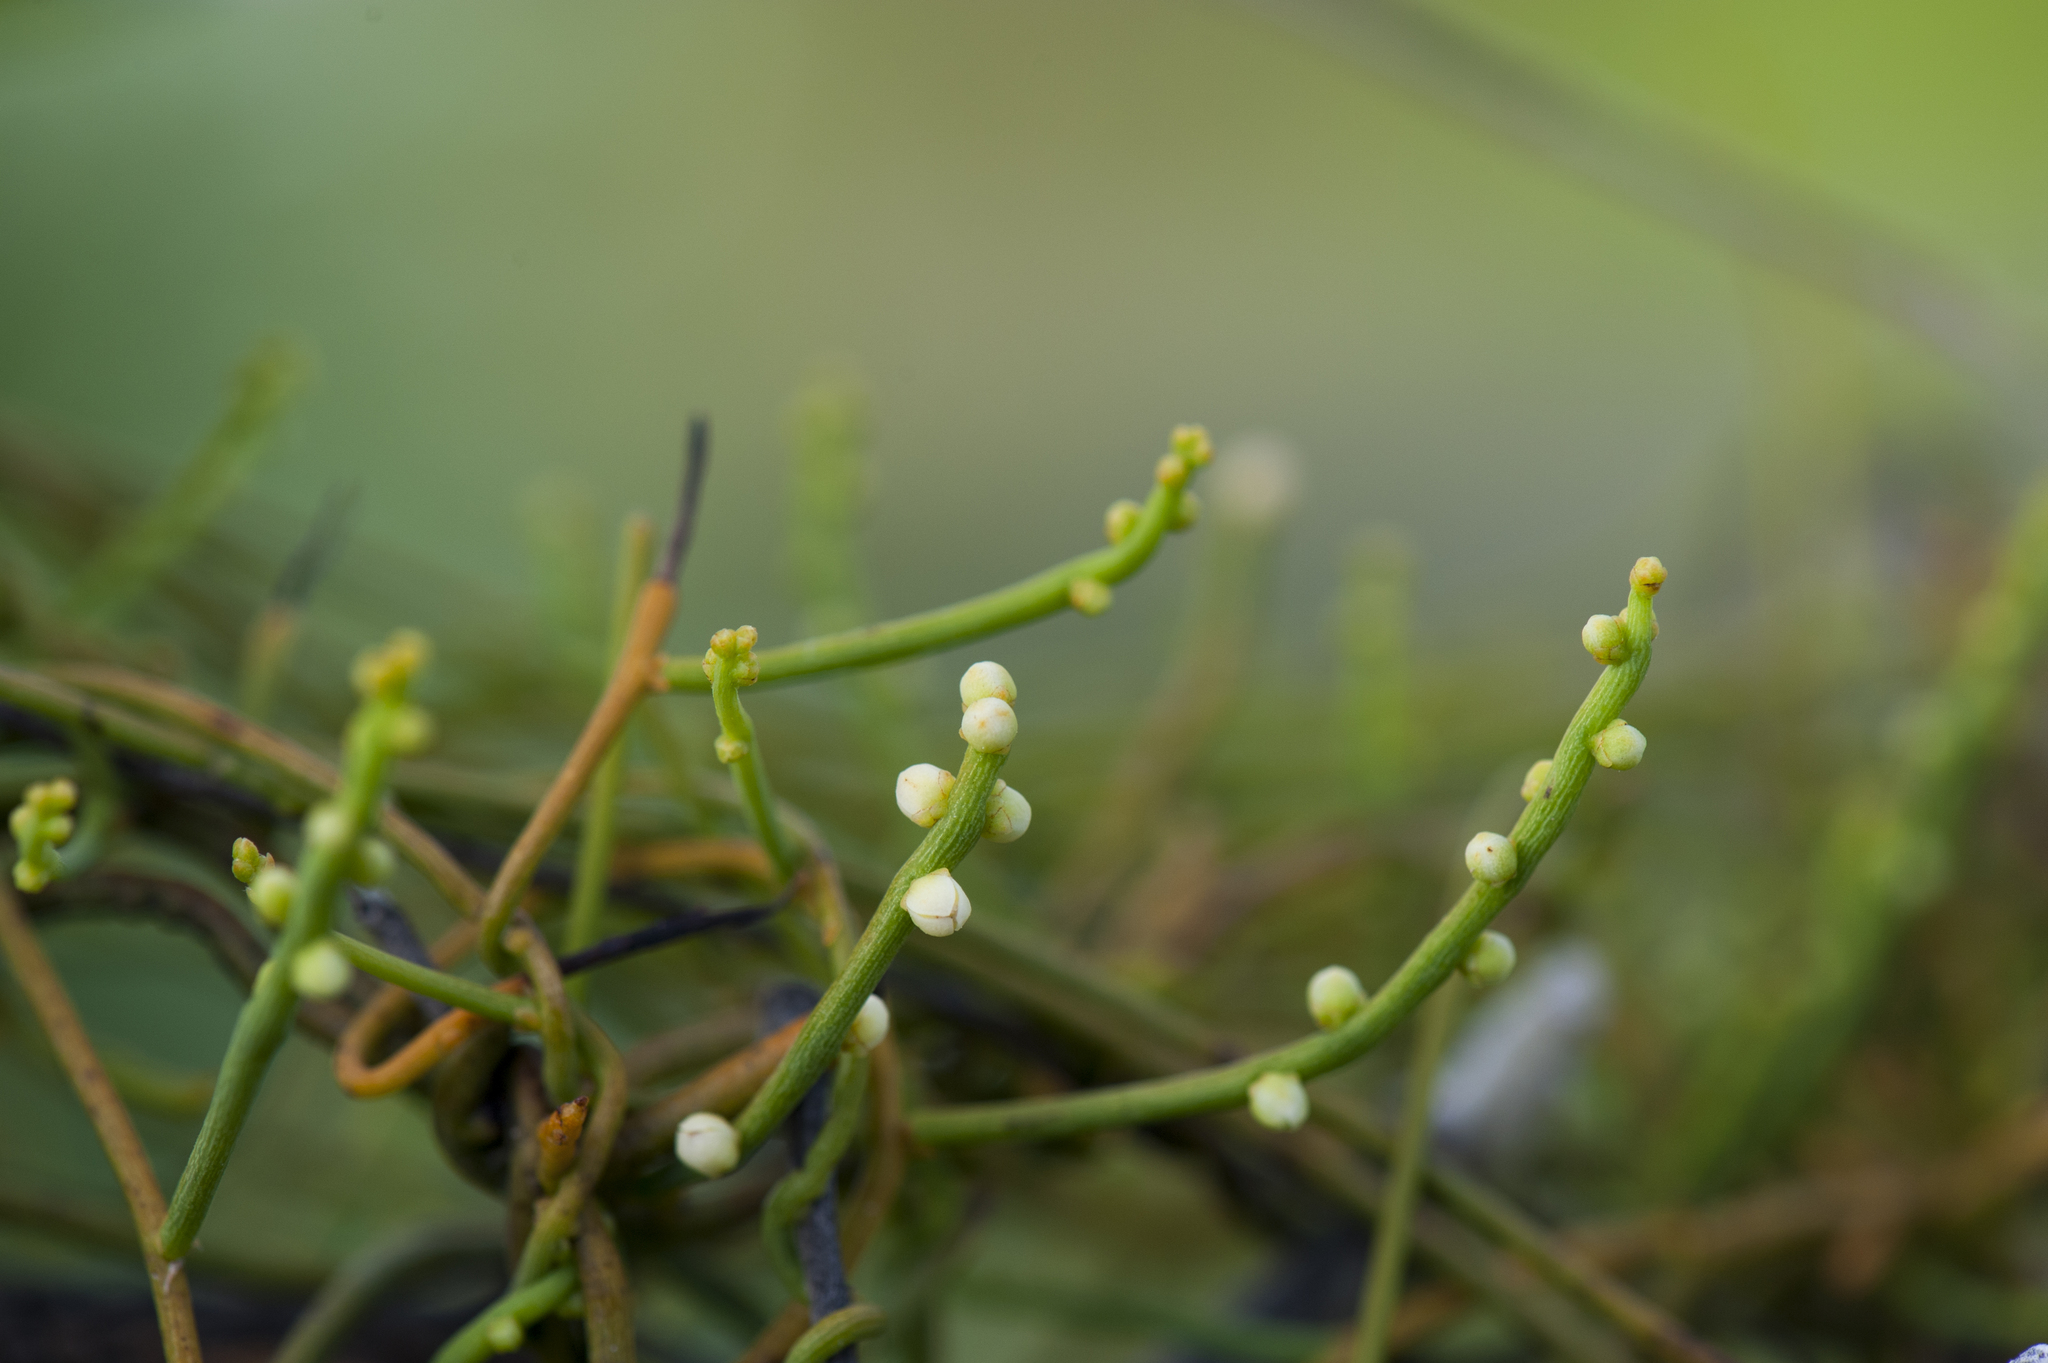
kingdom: Plantae
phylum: Tracheophyta
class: Magnoliopsida
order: Laurales
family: Lauraceae
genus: Cassytha
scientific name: Cassytha filiformis
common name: Dodder-laurel
